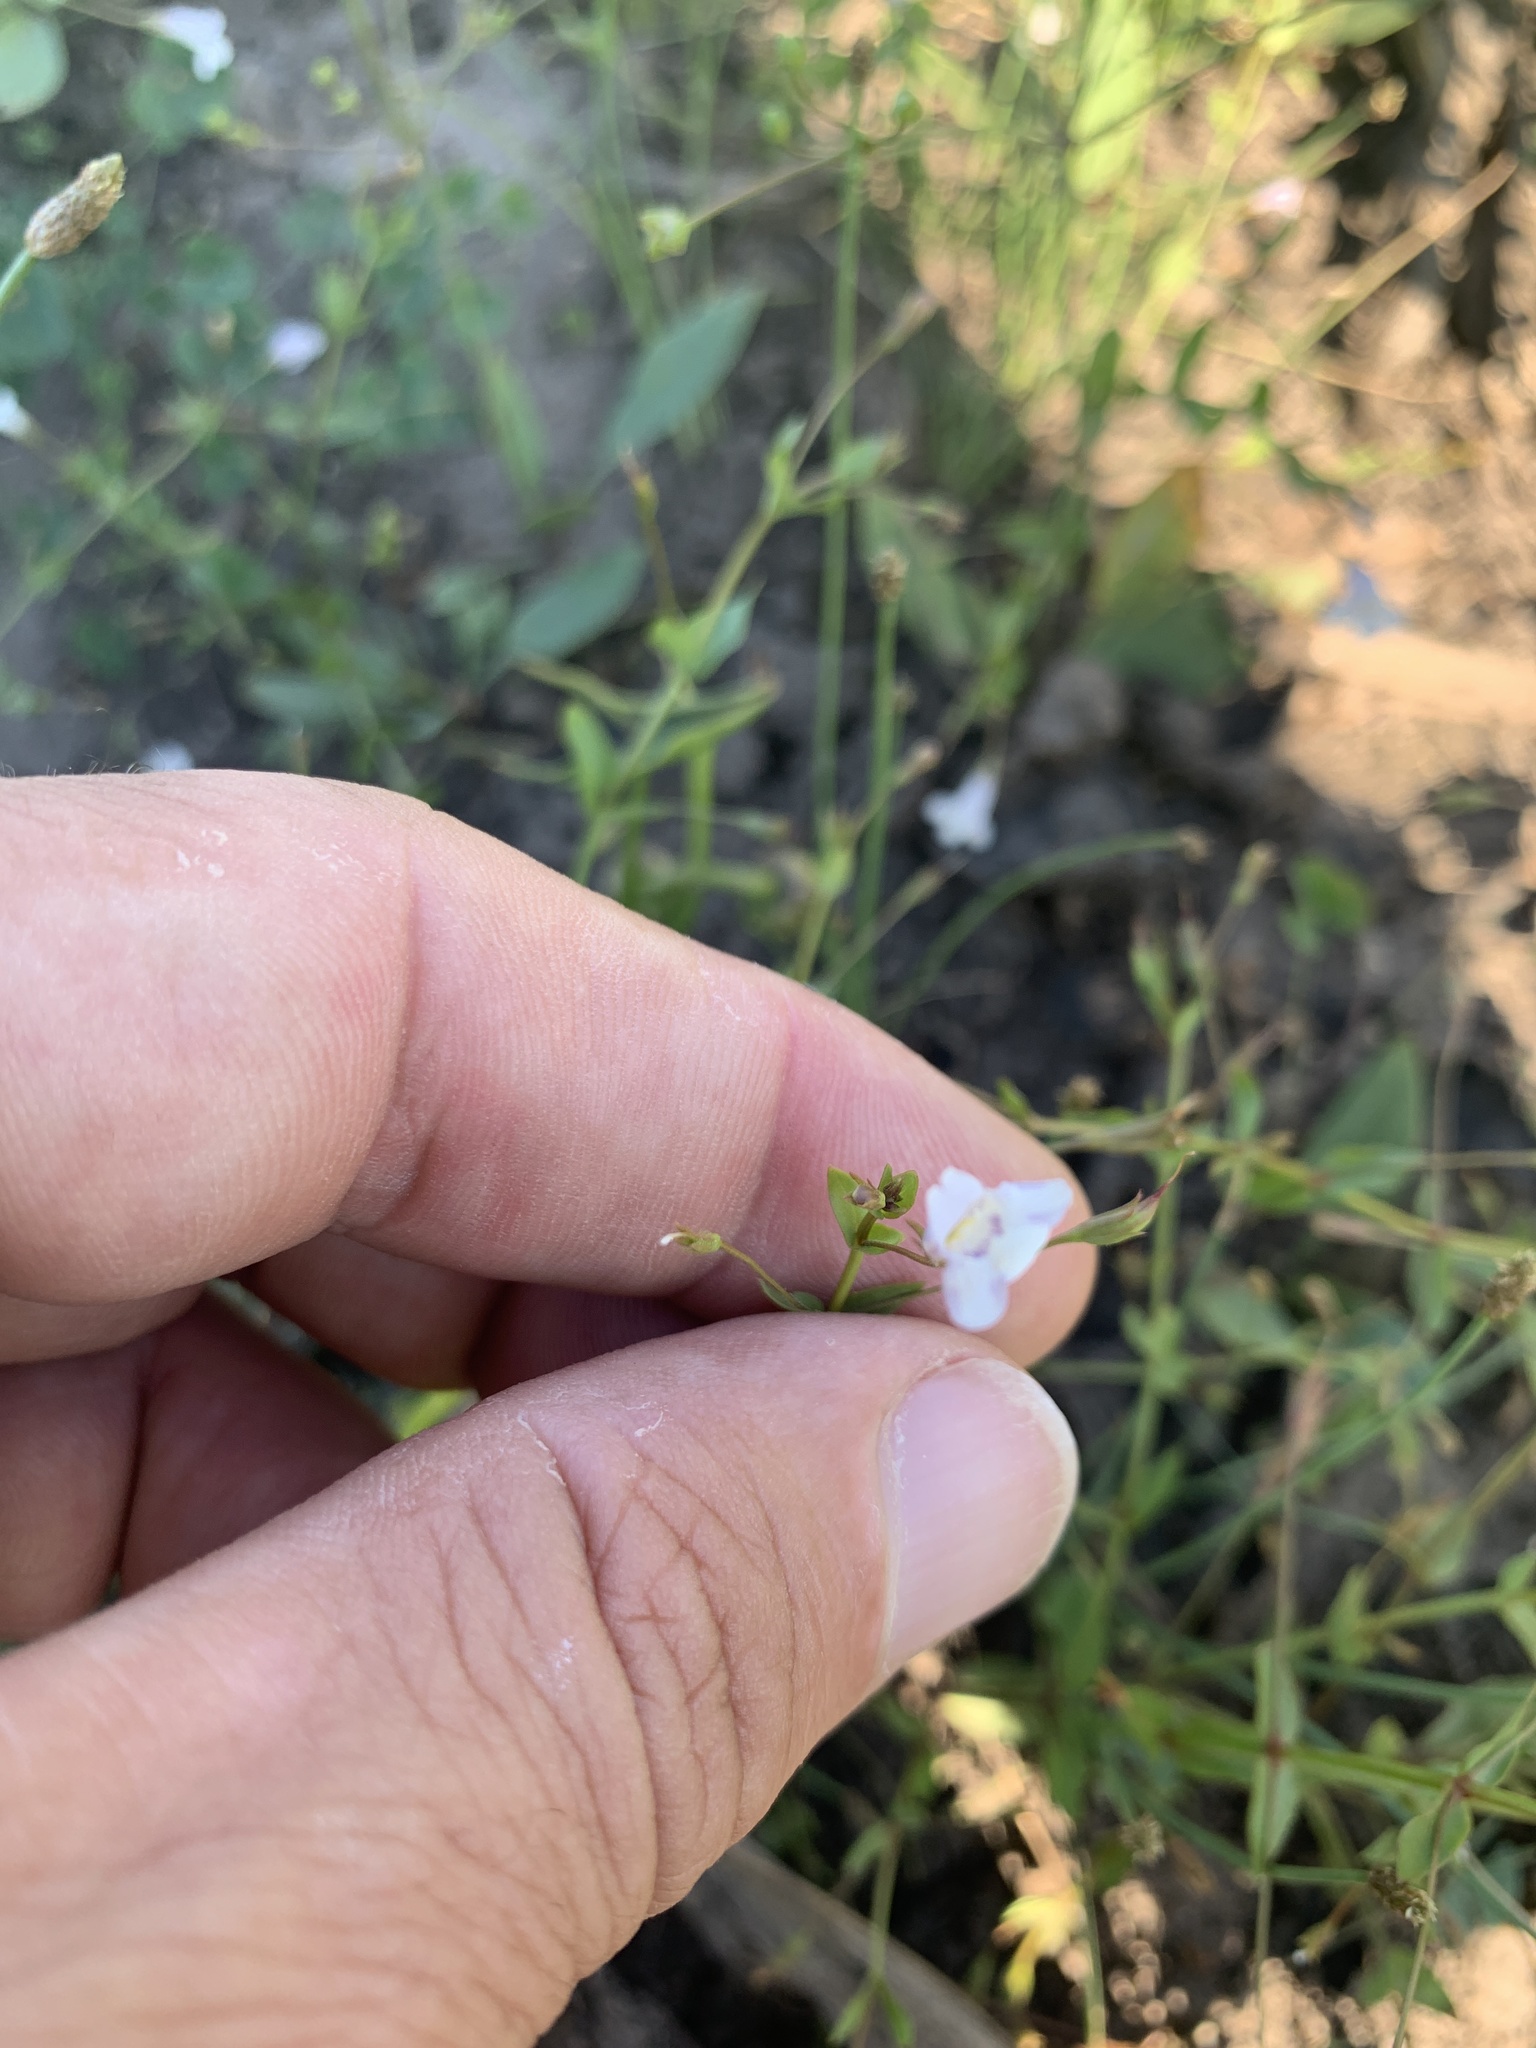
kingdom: Plantae
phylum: Tracheophyta
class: Magnoliopsida
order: Lamiales
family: Linderniaceae
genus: Lindernia
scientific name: Lindernia dubia
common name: Annual false pimpernel
